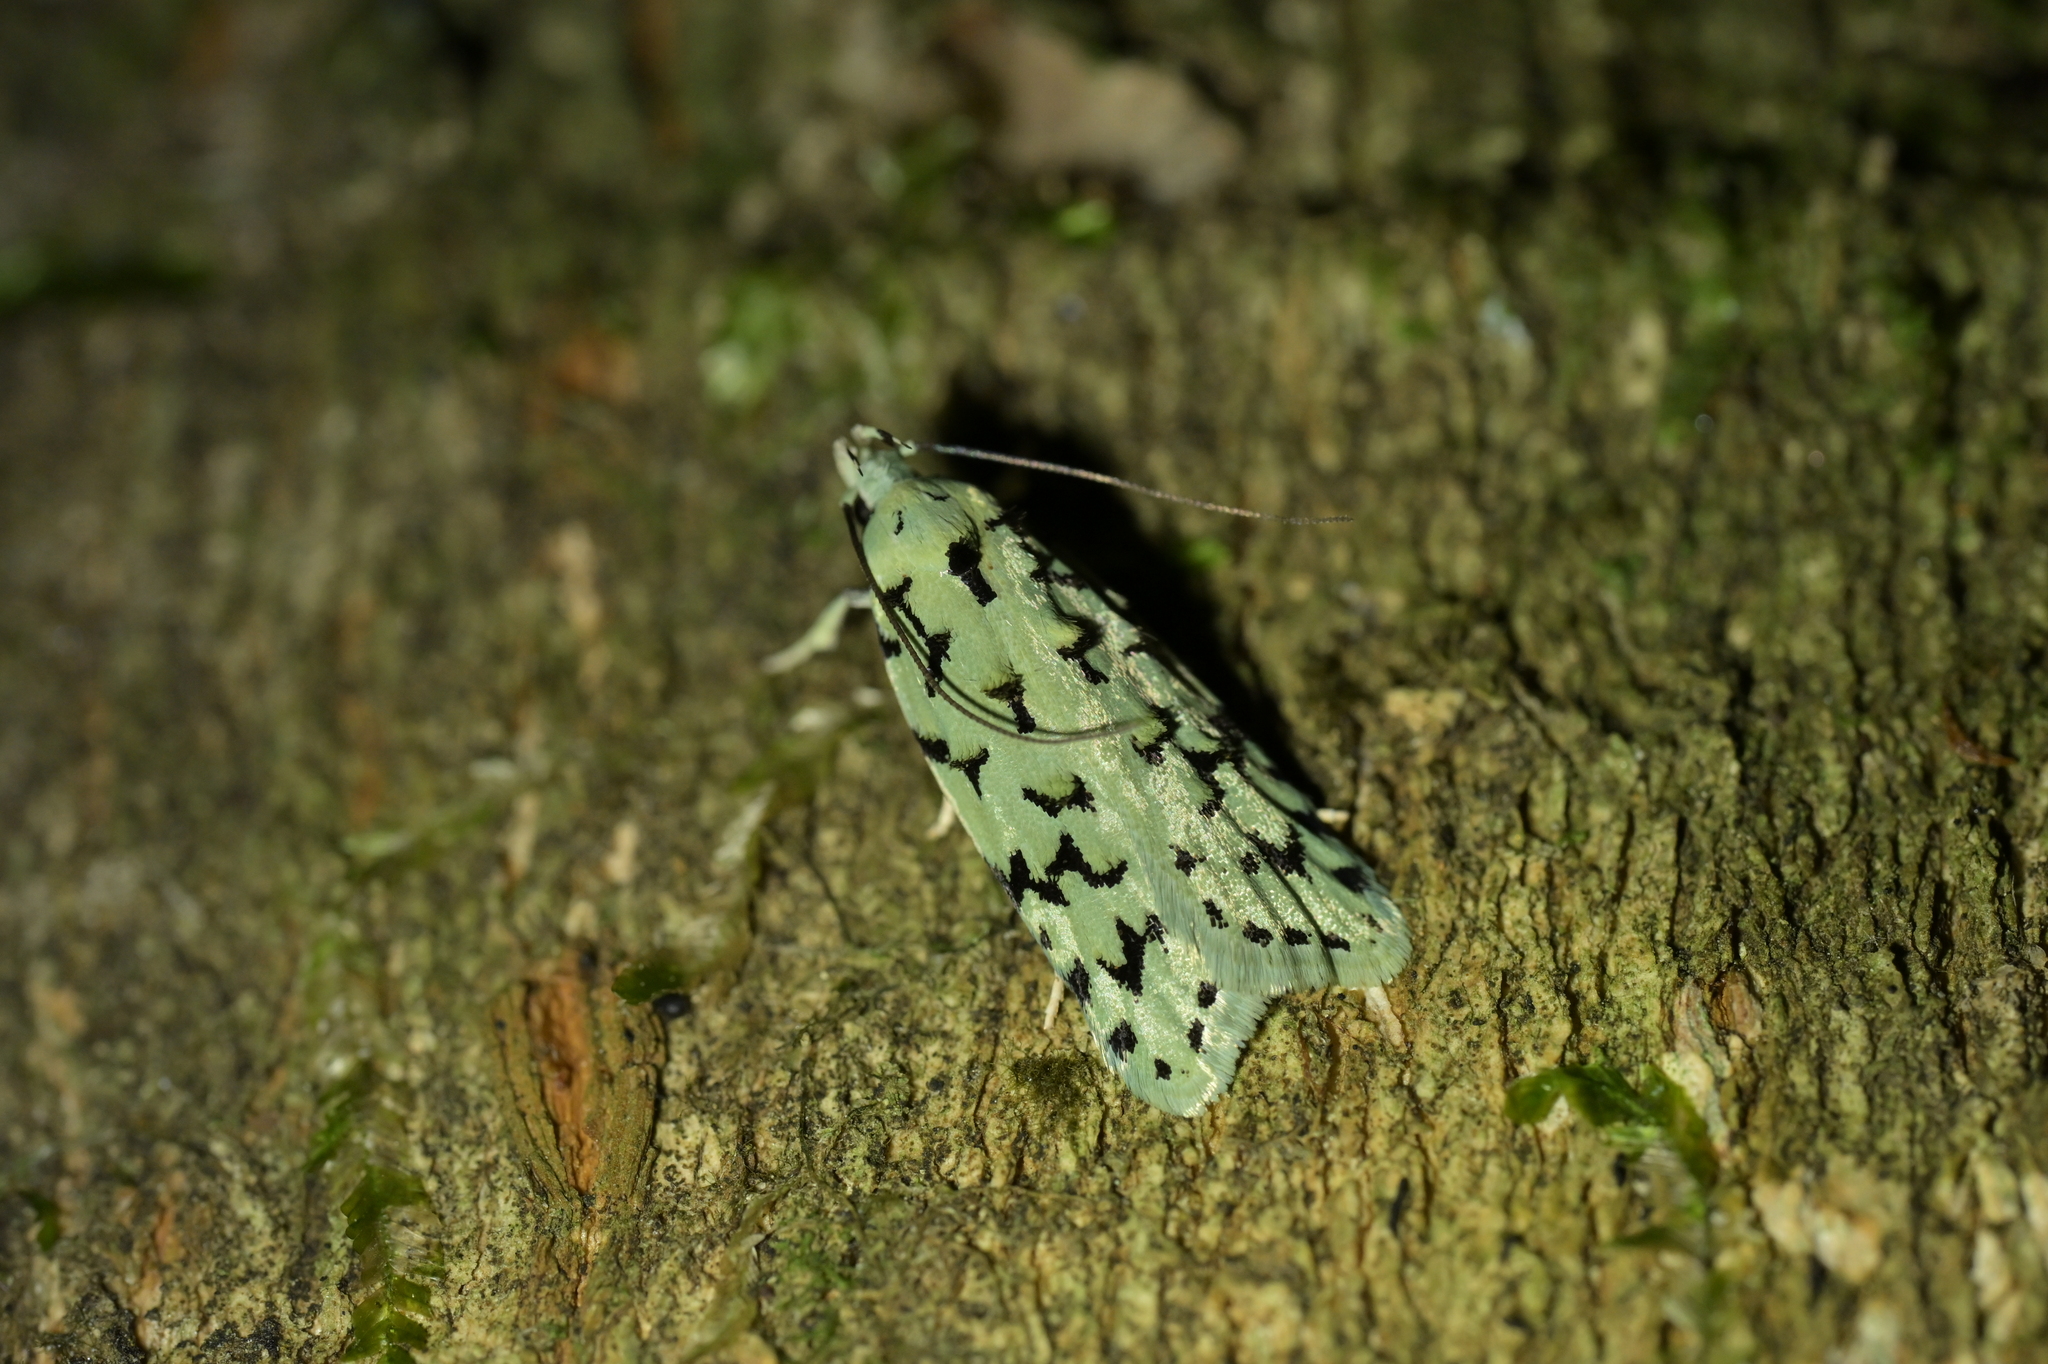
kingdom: Animalia
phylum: Arthropoda
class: Insecta
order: Lepidoptera
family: Oecophoridae
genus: Izatha
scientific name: Izatha peroneanella
